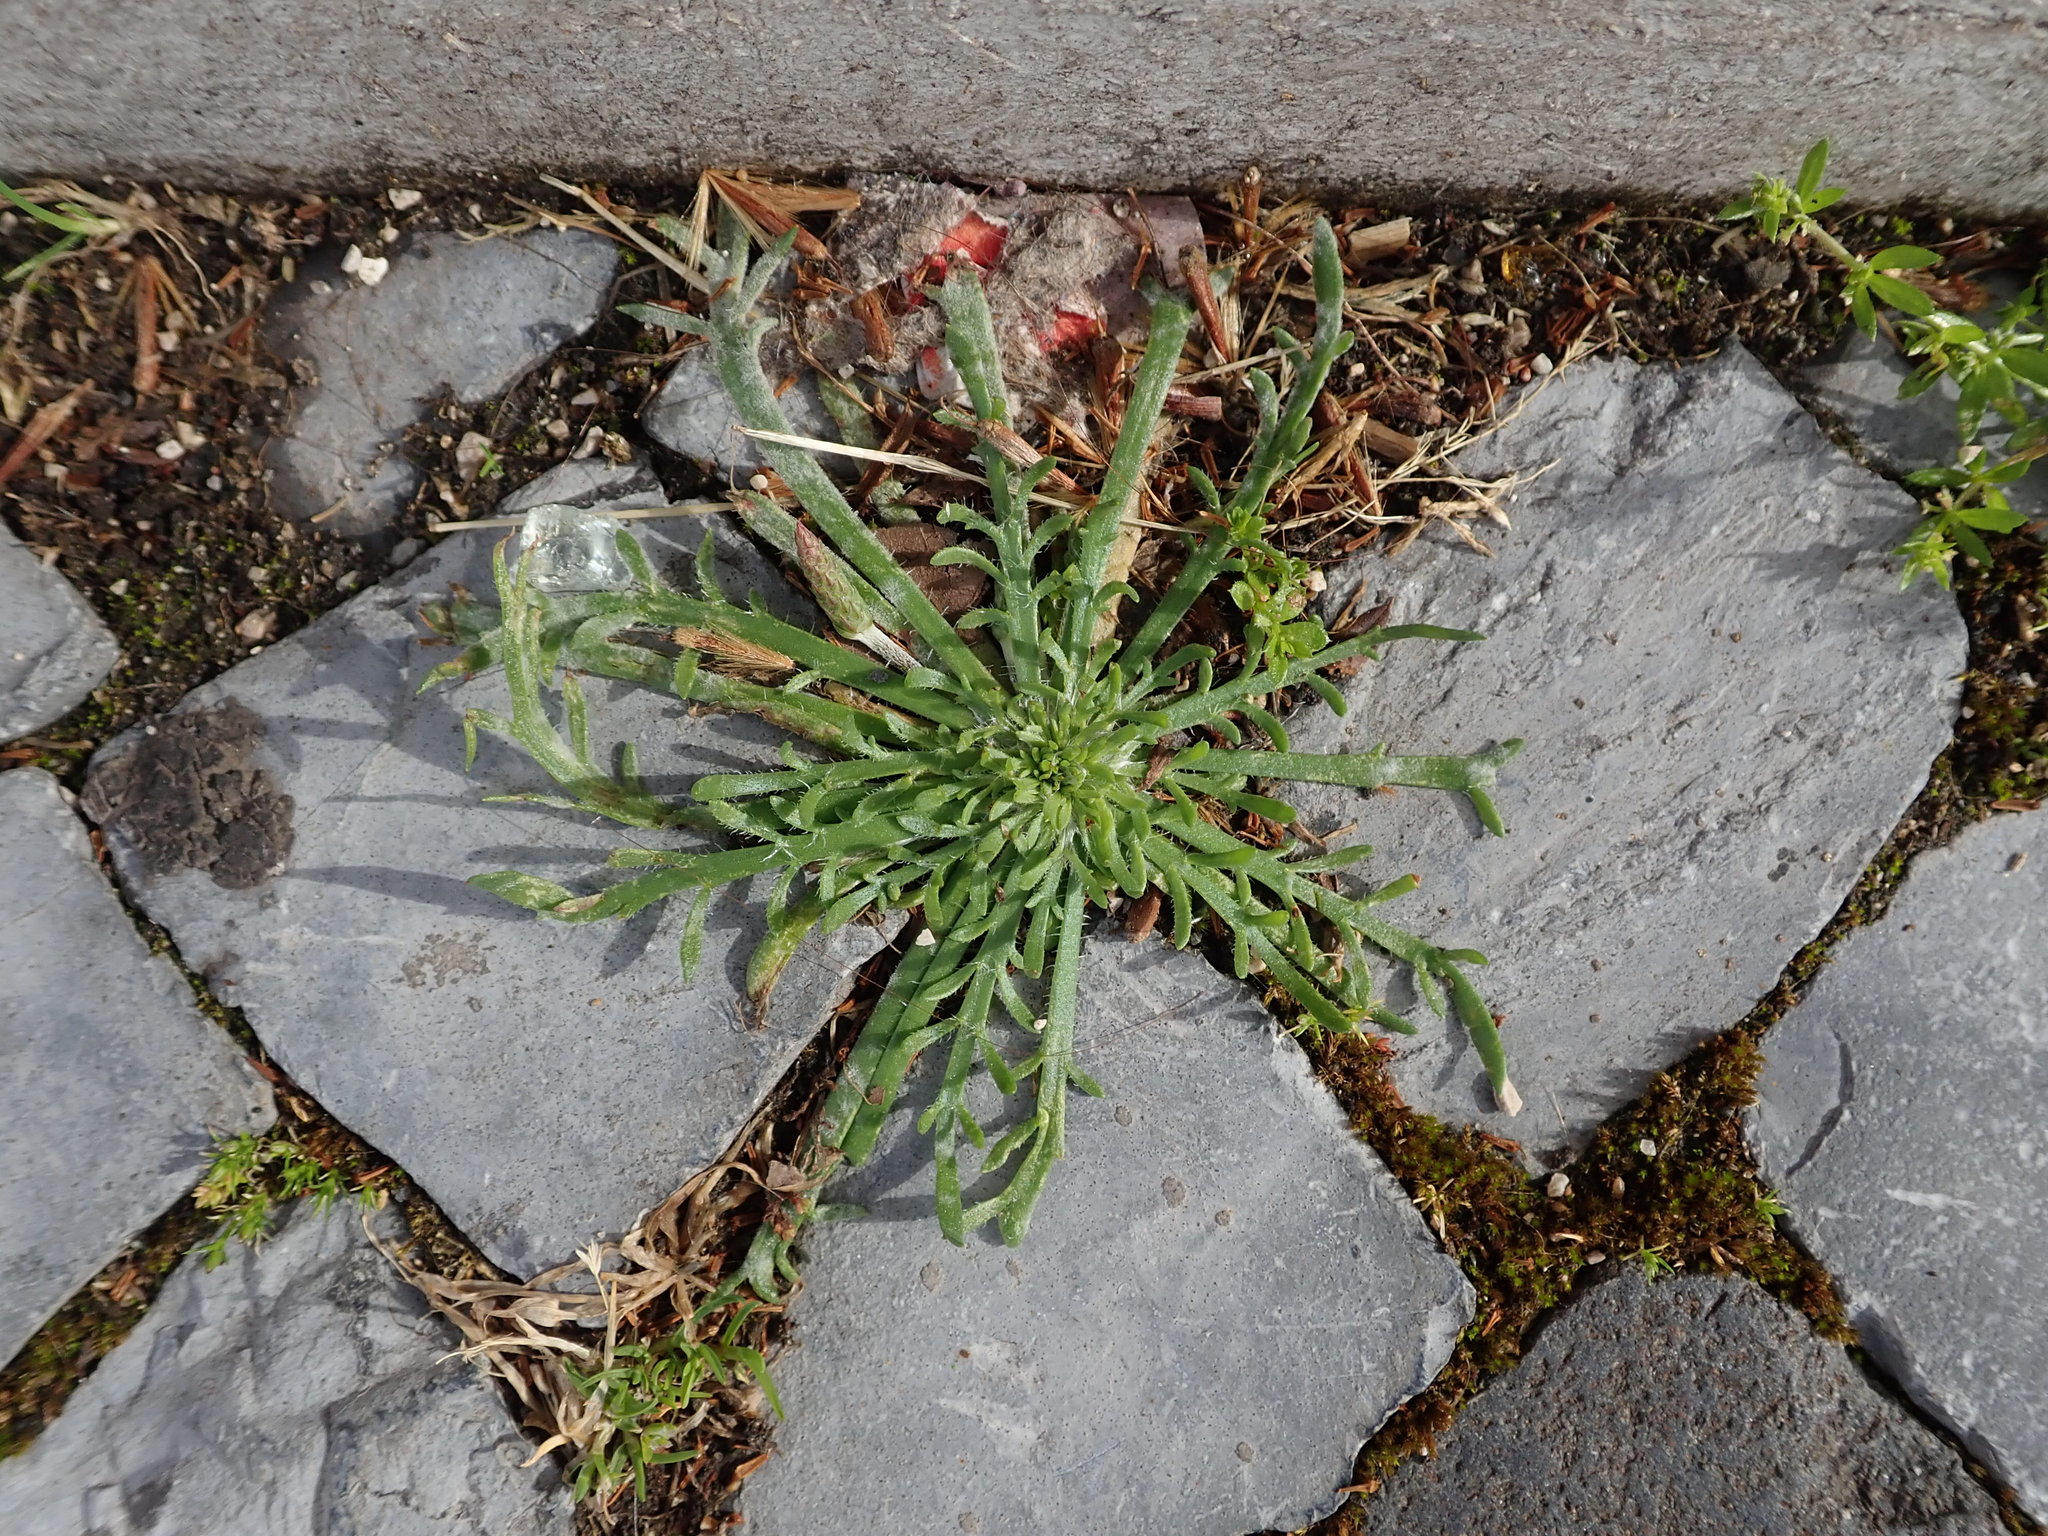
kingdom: Plantae
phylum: Tracheophyta
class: Magnoliopsida
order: Lamiales
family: Plantaginaceae
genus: Plantago
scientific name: Plantago coronopus
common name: Buck's-horn plantain
